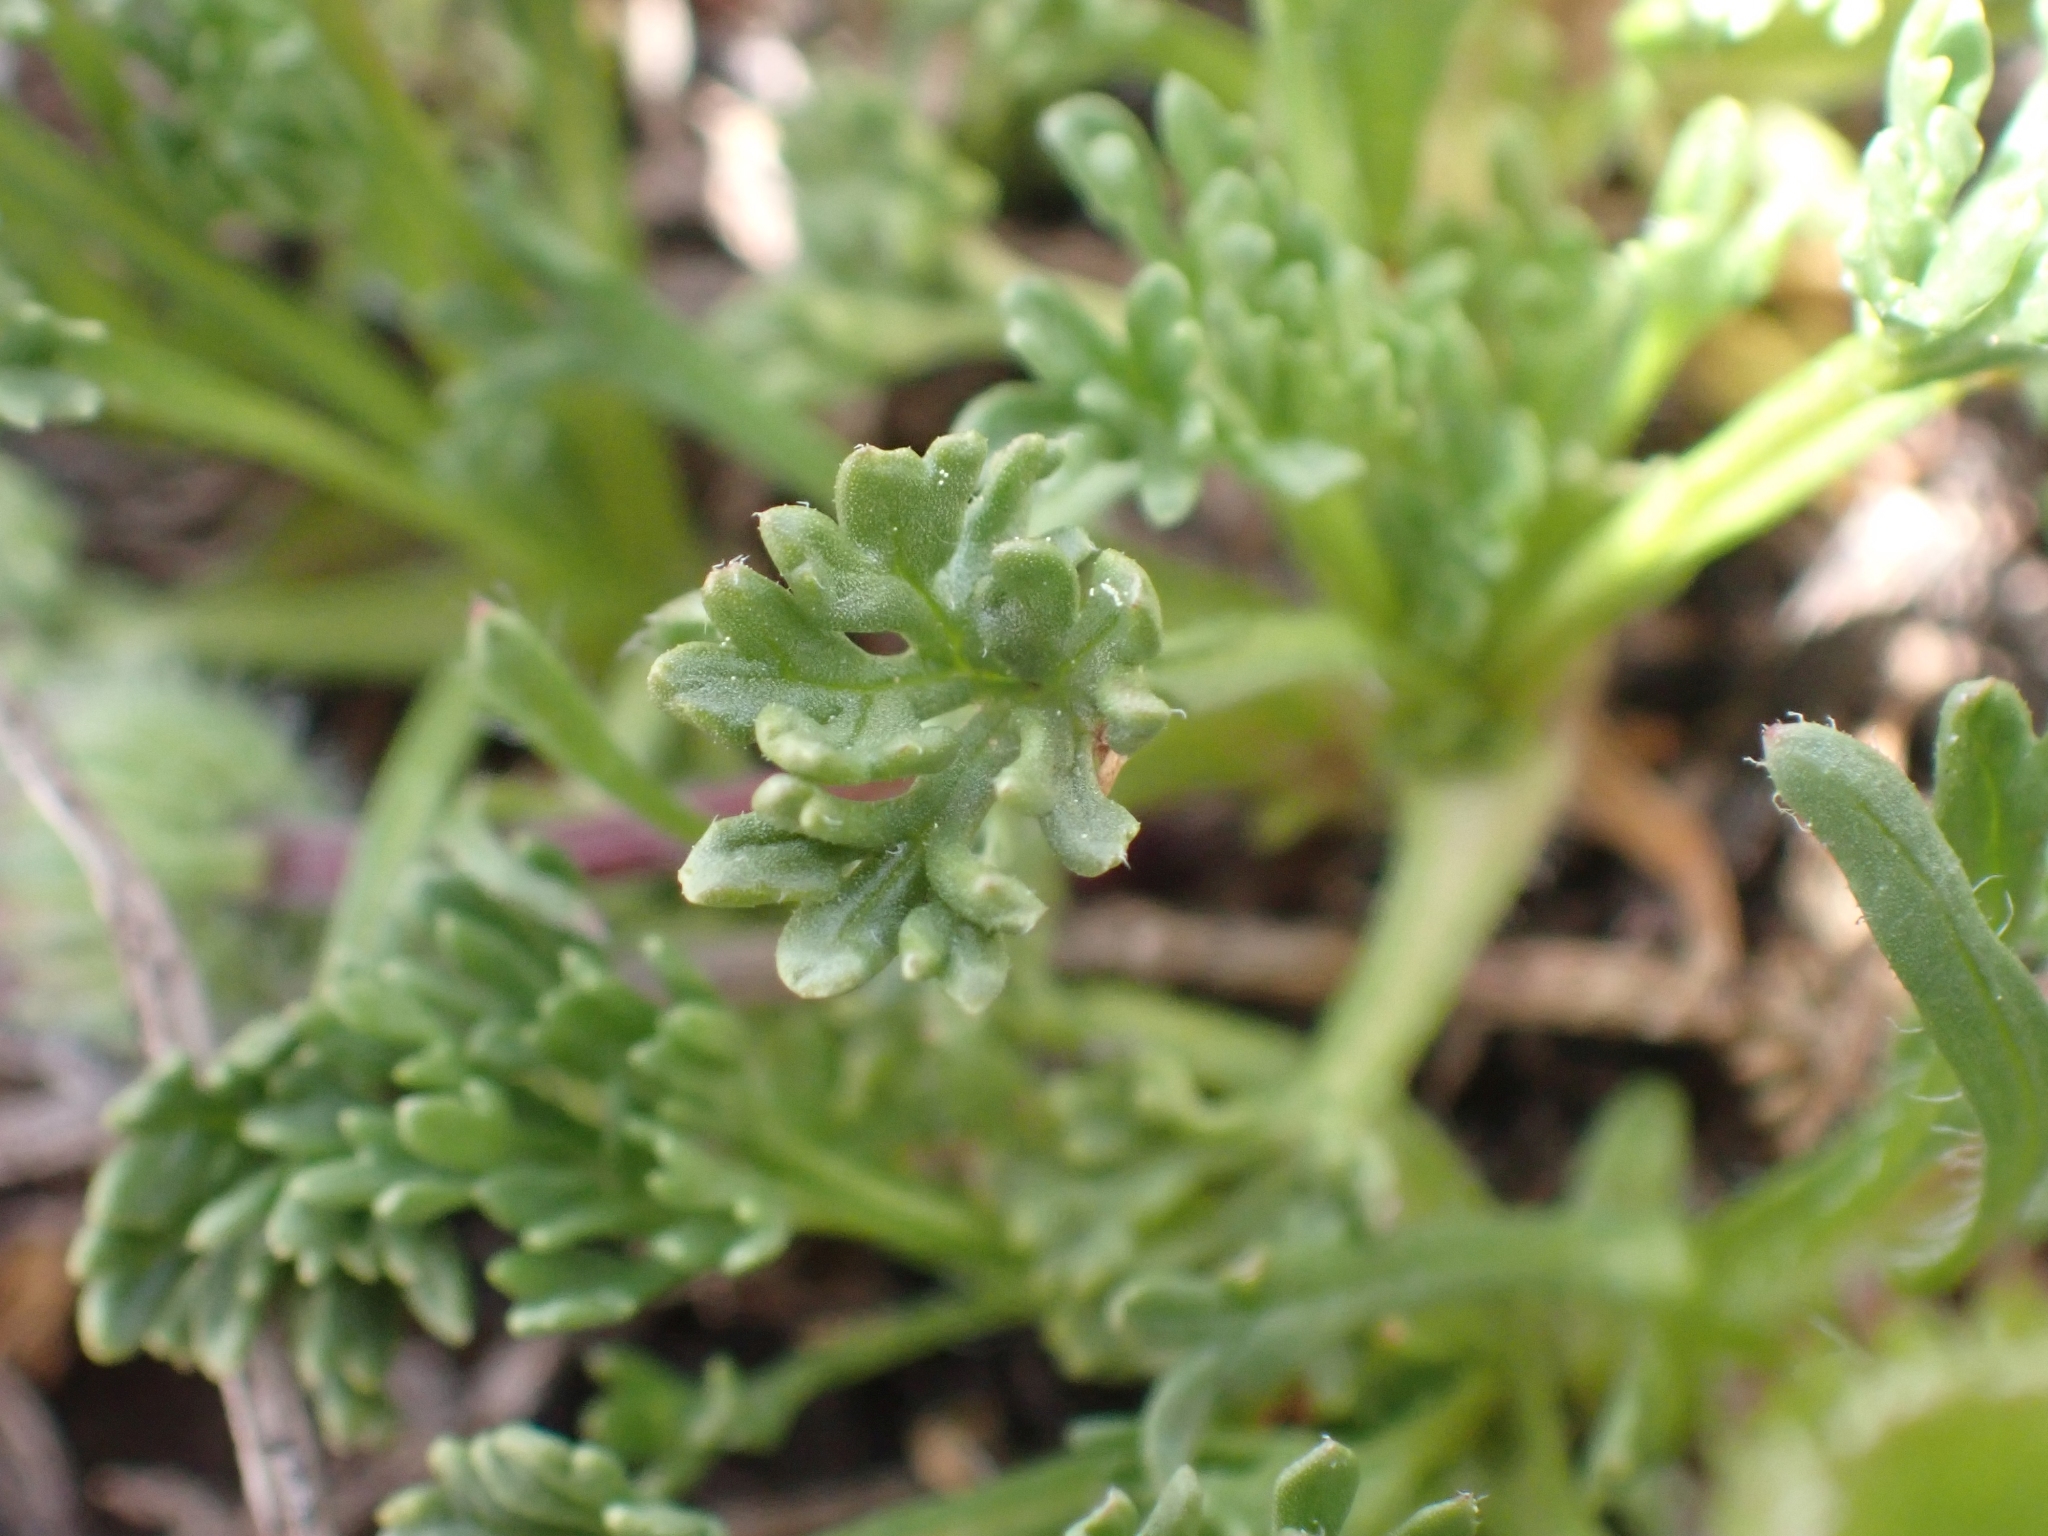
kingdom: Plantae
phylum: Tracheophyta
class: Magnoliopsida
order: Asterales
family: Asteraceae
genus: Erigeron
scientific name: Erigeron compositus
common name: Dwarf mountain fleabane
